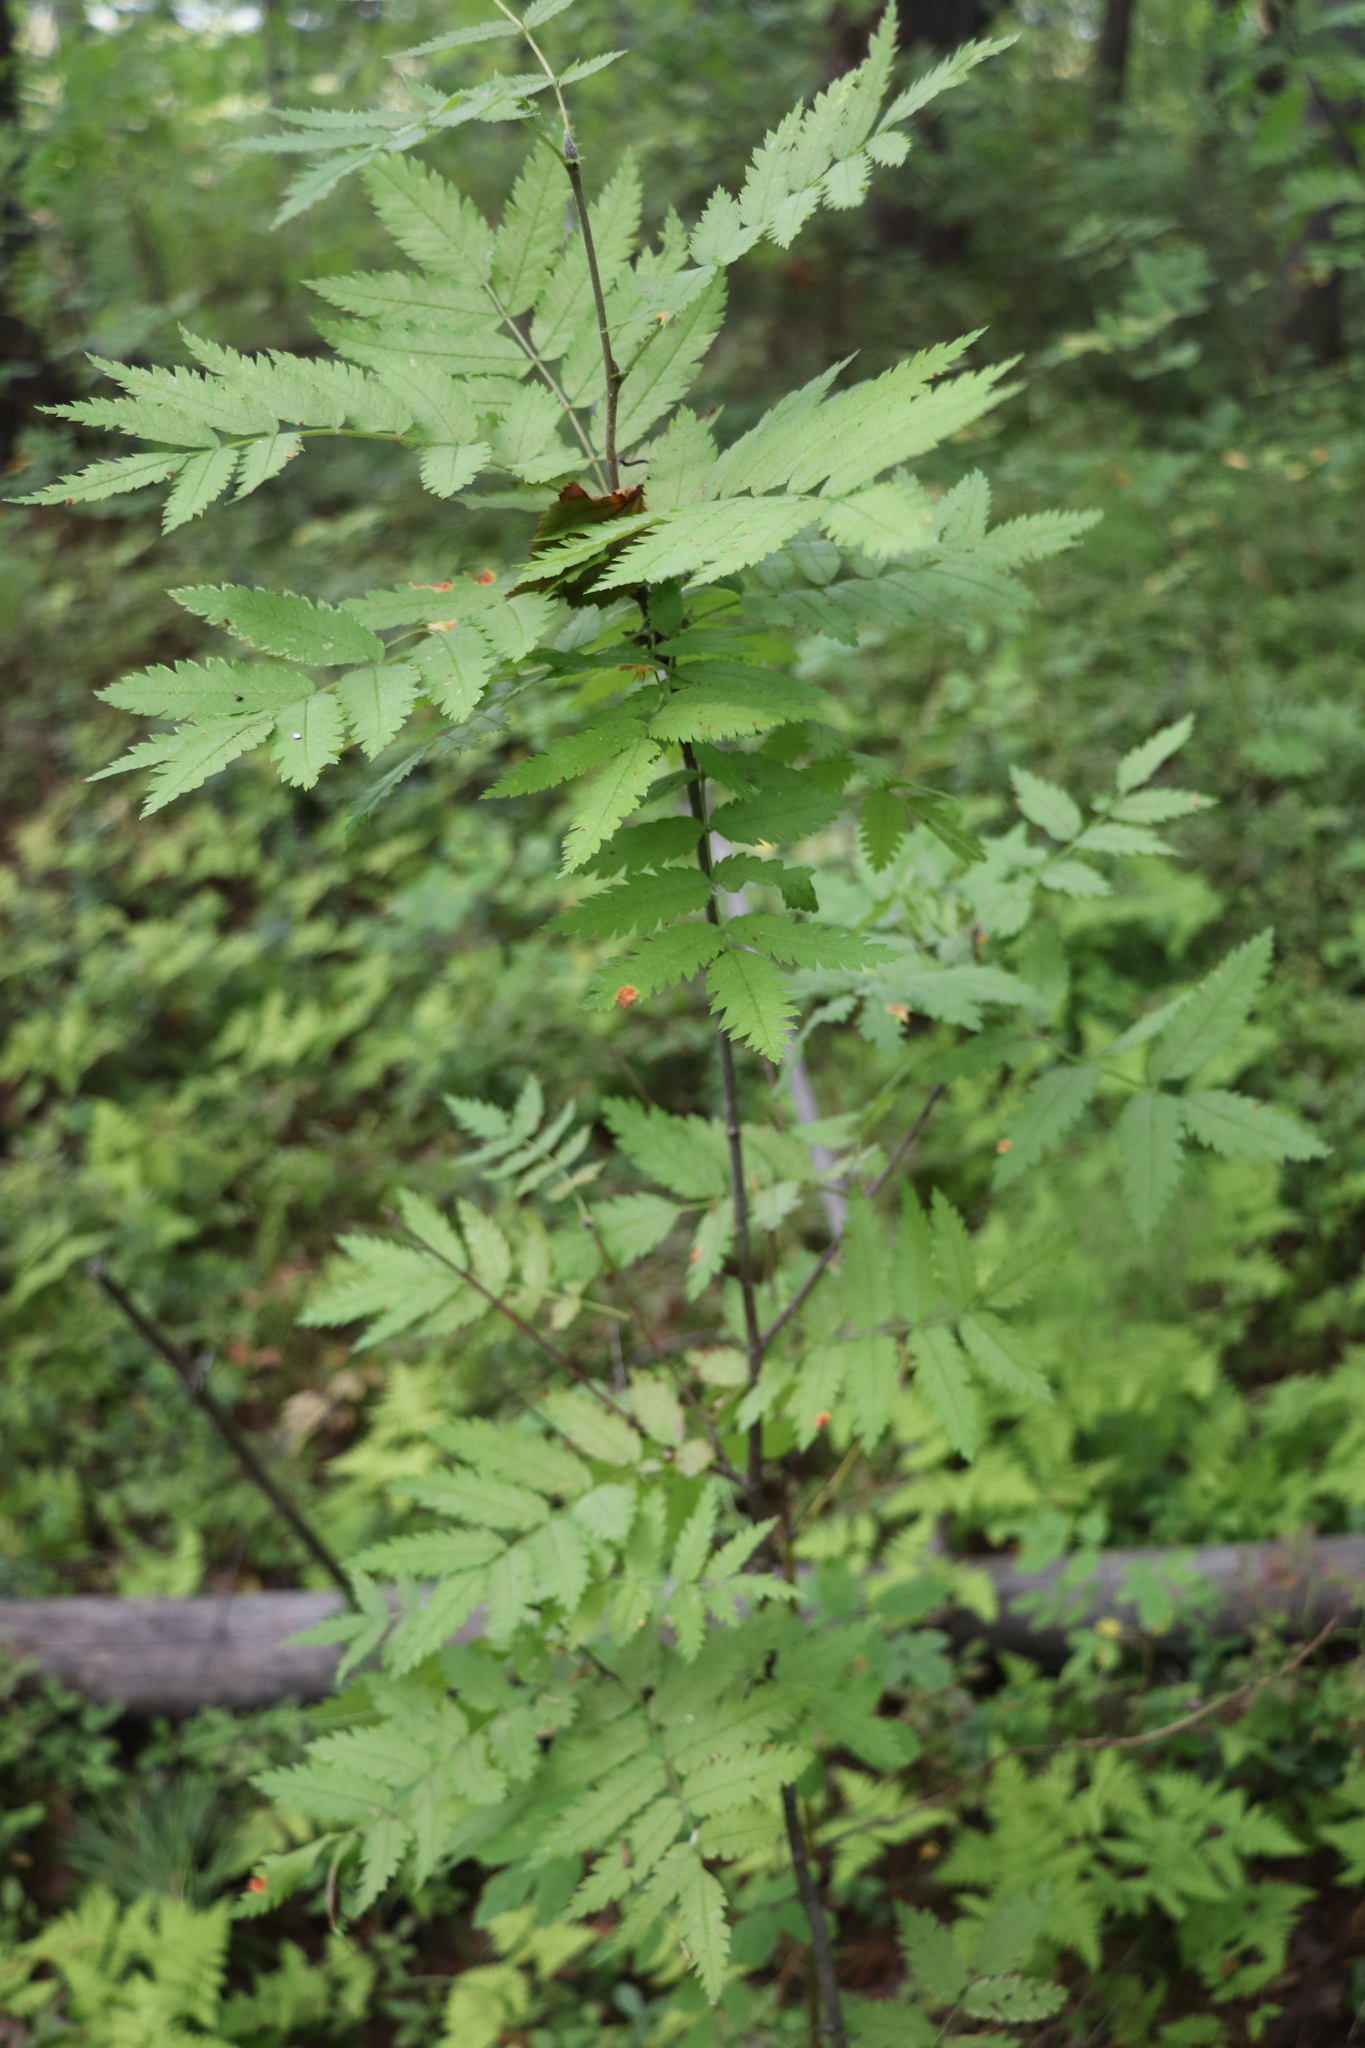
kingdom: Plantae
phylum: Tracheophyta
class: Magnoliopsida
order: Rosales
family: Rosaceae
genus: Sorbus
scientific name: Sorbus aucuparia
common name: Rowan
